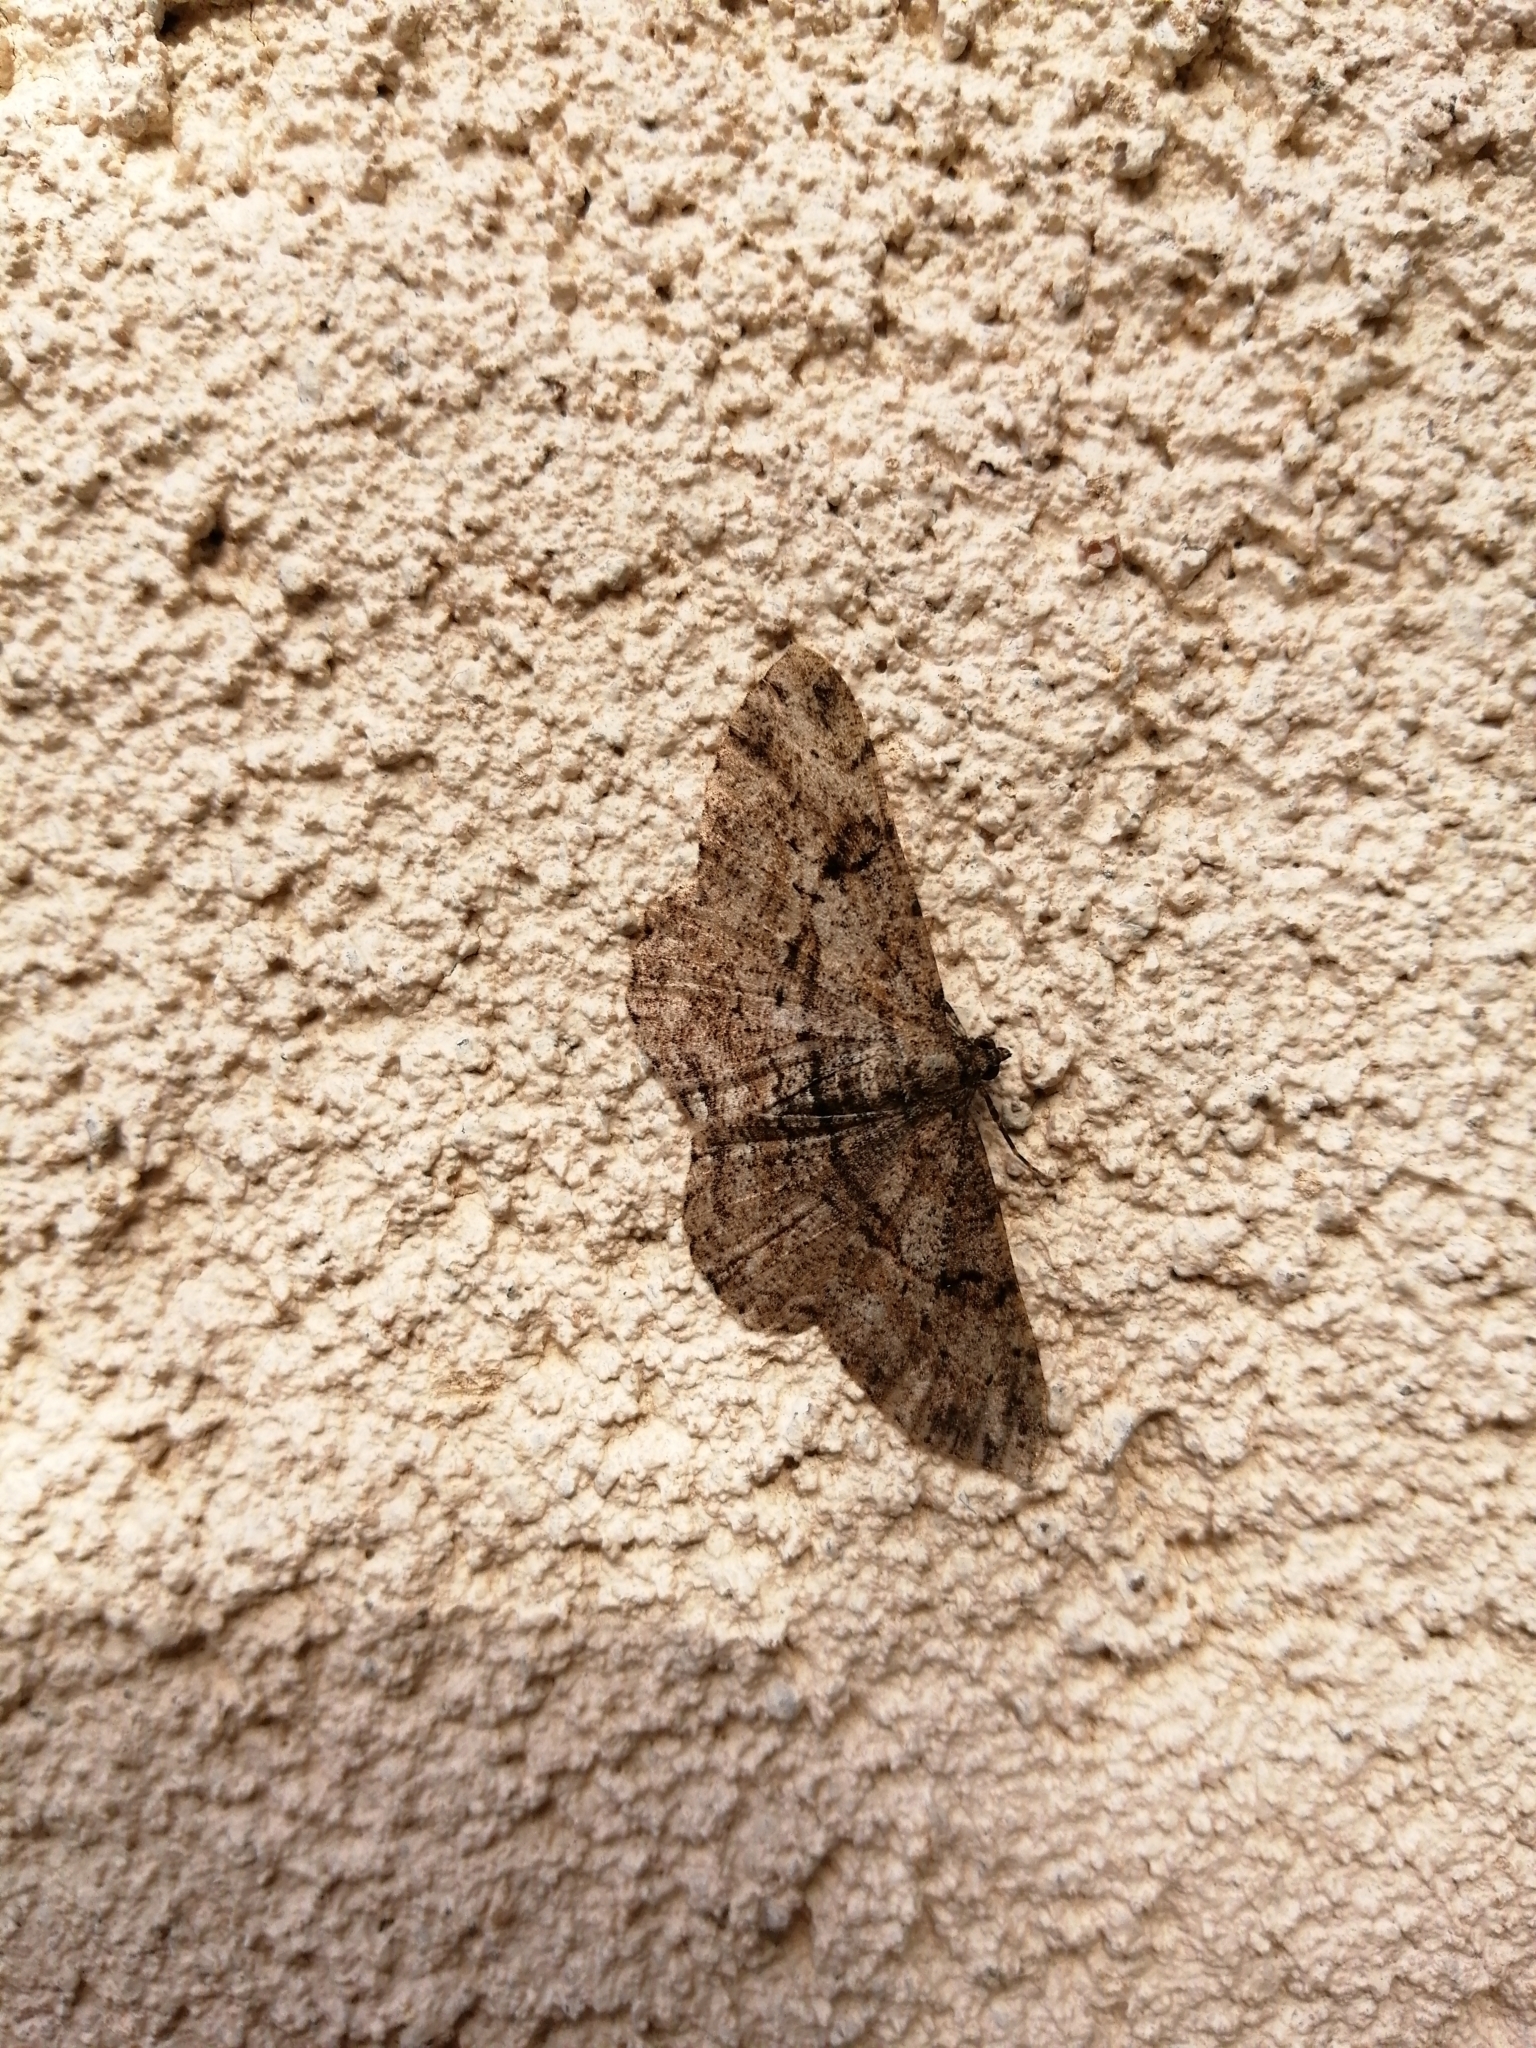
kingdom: Animalia
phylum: Arthropoda
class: Insecta
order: Lepidoptera
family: Geometridae
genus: Peribatodes
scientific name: Peribatodes rhomboidaria
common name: Willow beauty
